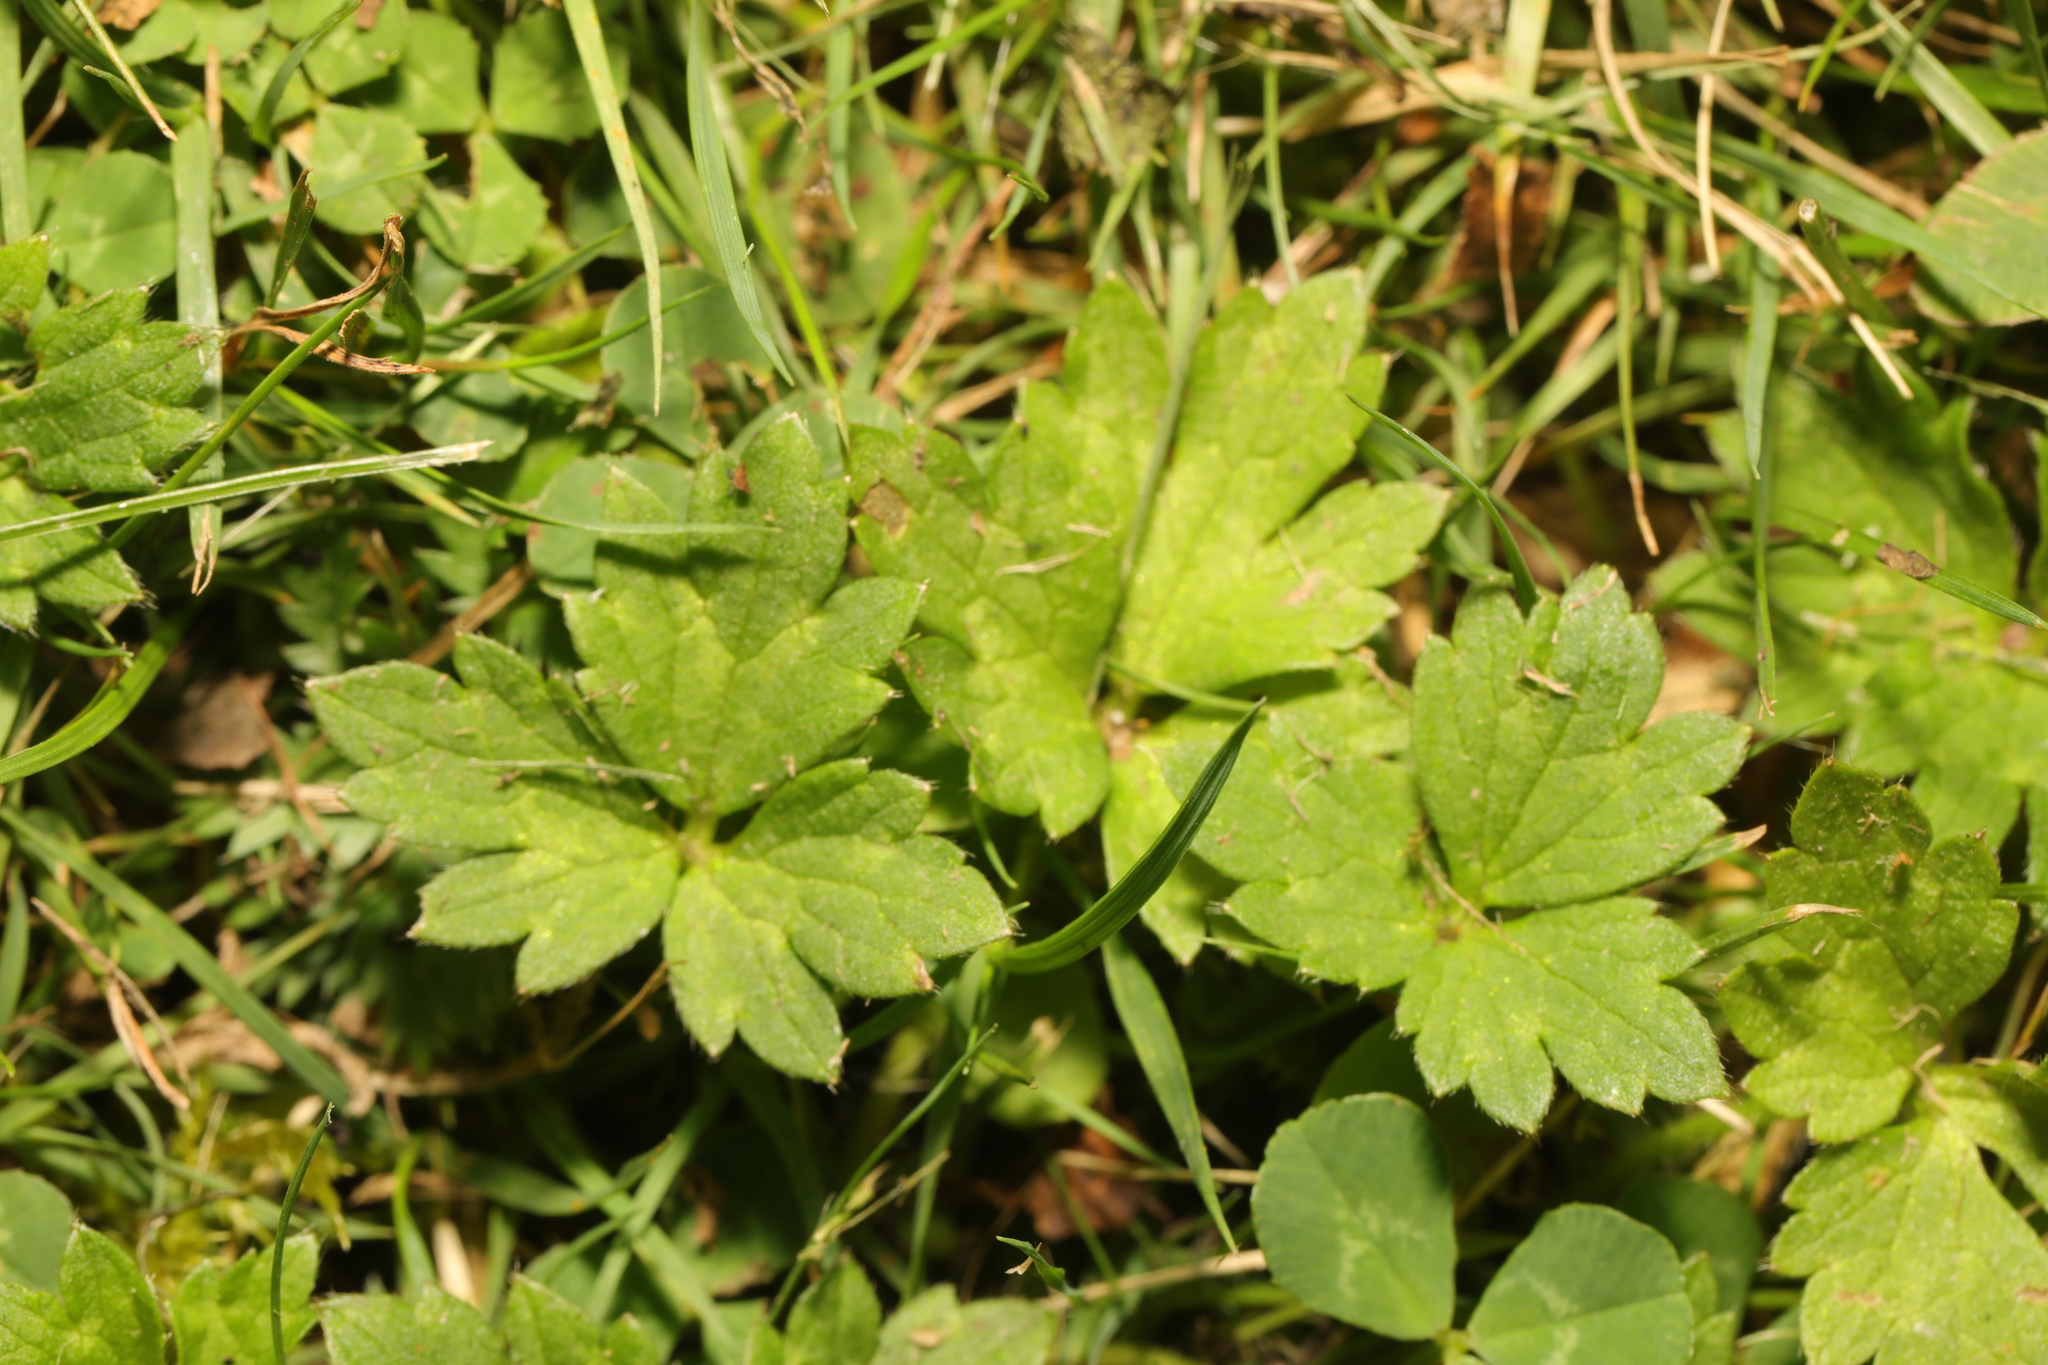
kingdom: Plantae
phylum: Tracheophyta
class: Magnoliopsida
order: Ranunculales
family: Ranunculaceae
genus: Ranunculus
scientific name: Ranunculus repens
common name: Creeping buttercup
